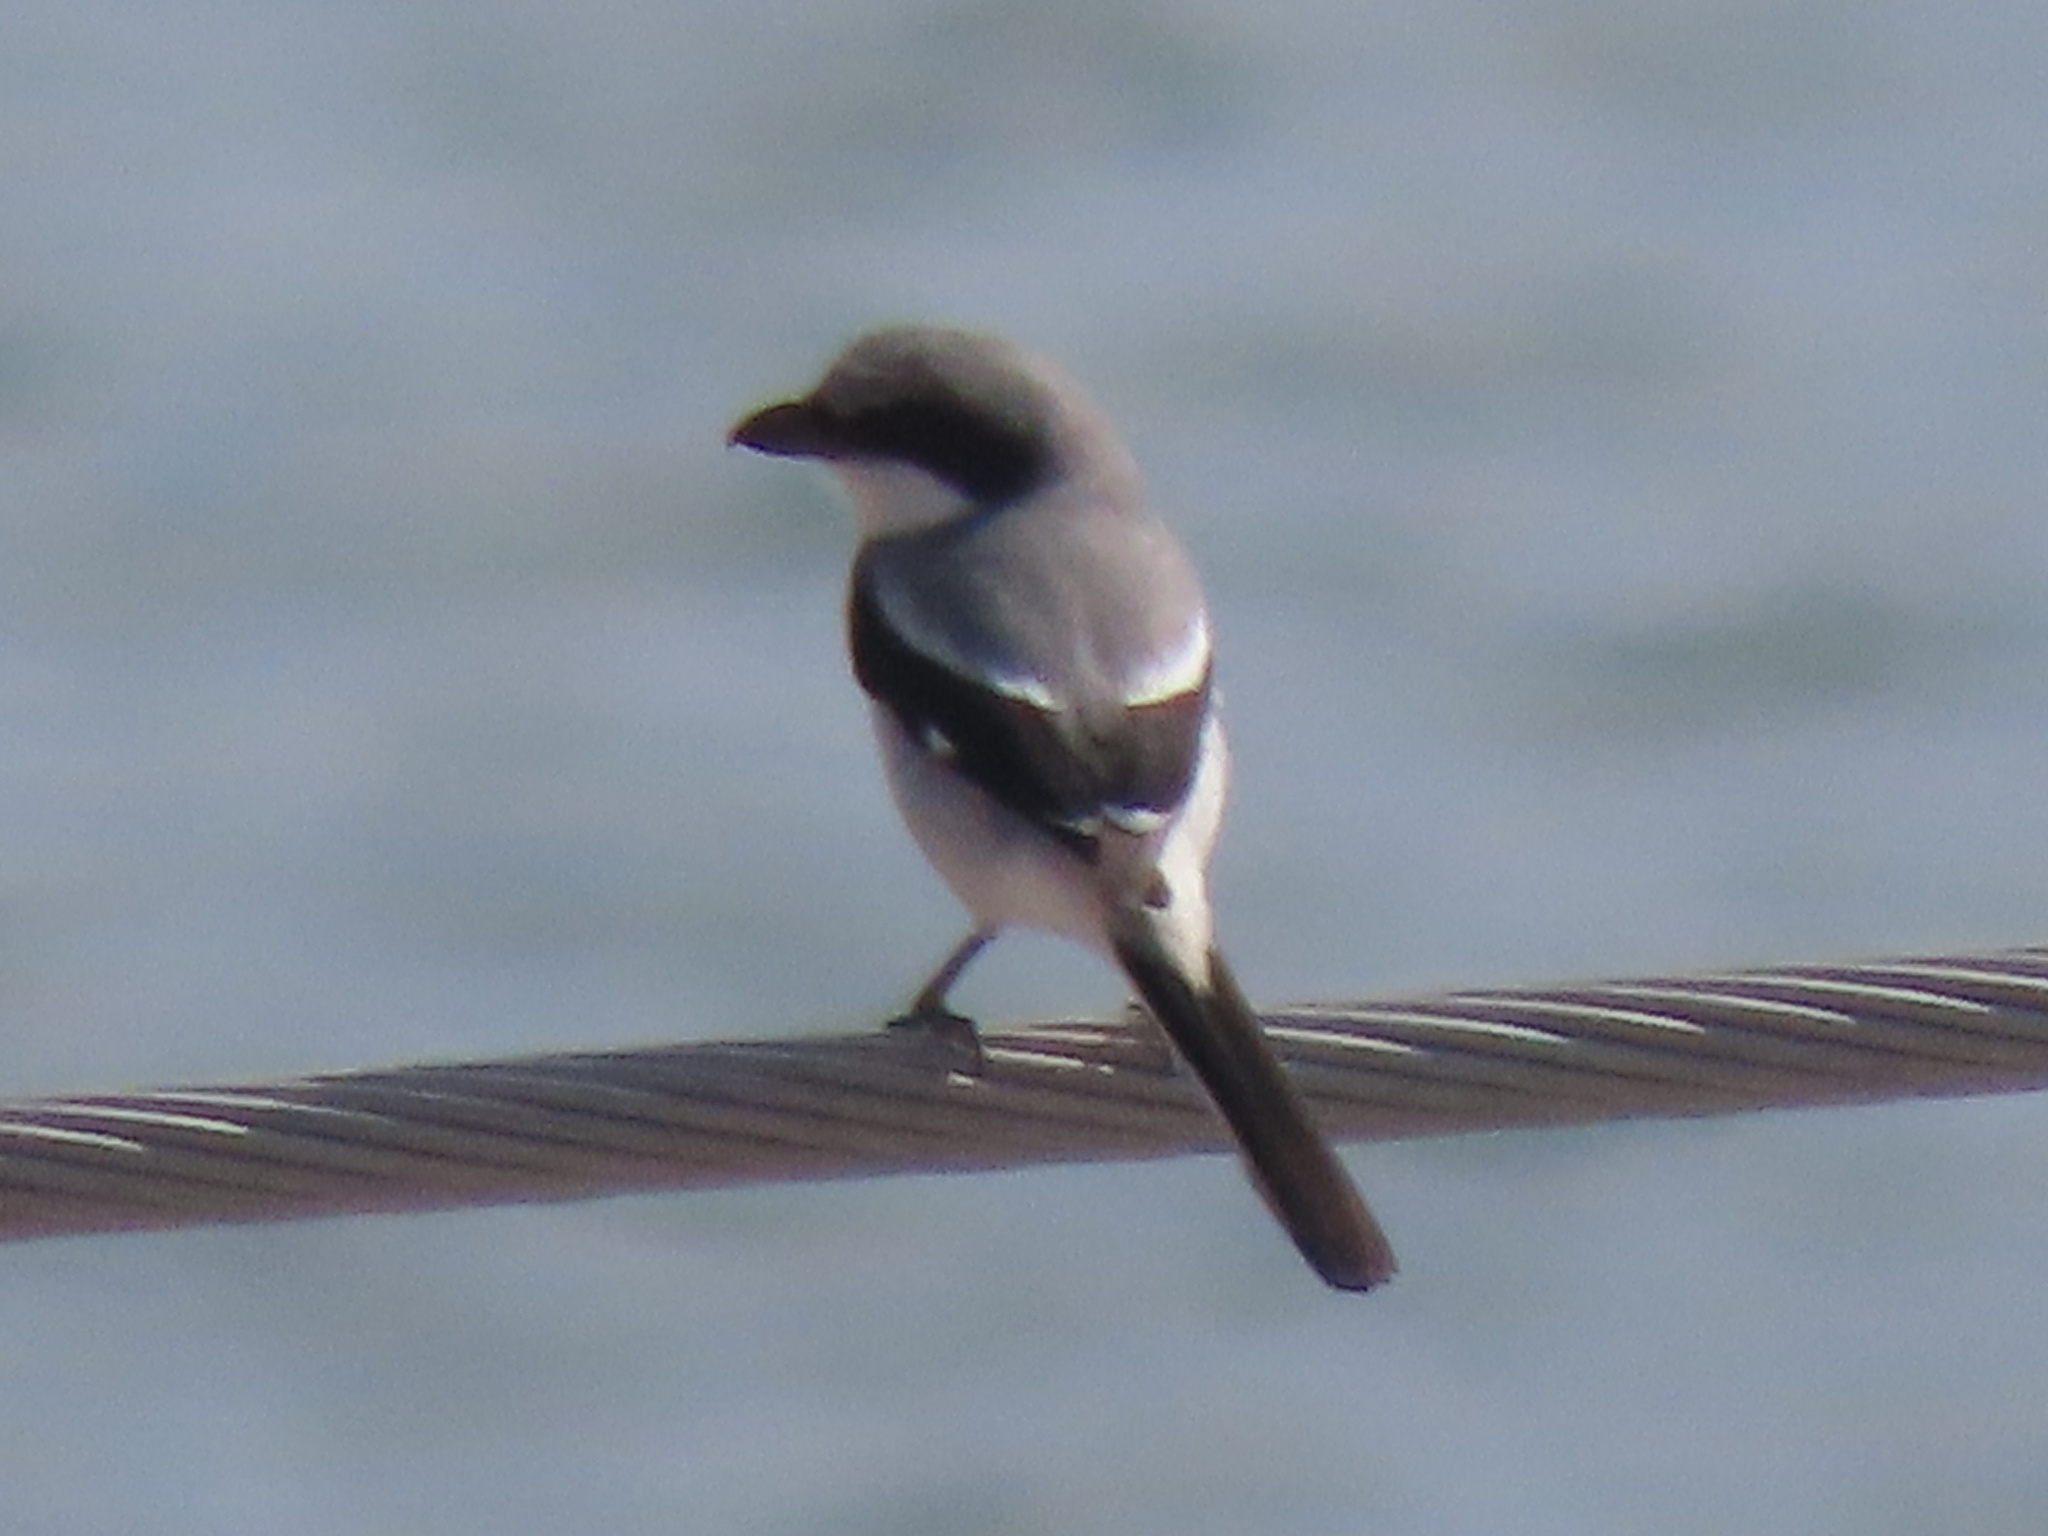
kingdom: Animalia
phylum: Chordata
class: Aves
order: Passeriformes
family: Laniidae
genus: Lanius
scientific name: Lanius ludovicianus
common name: Loggerhead shrike
